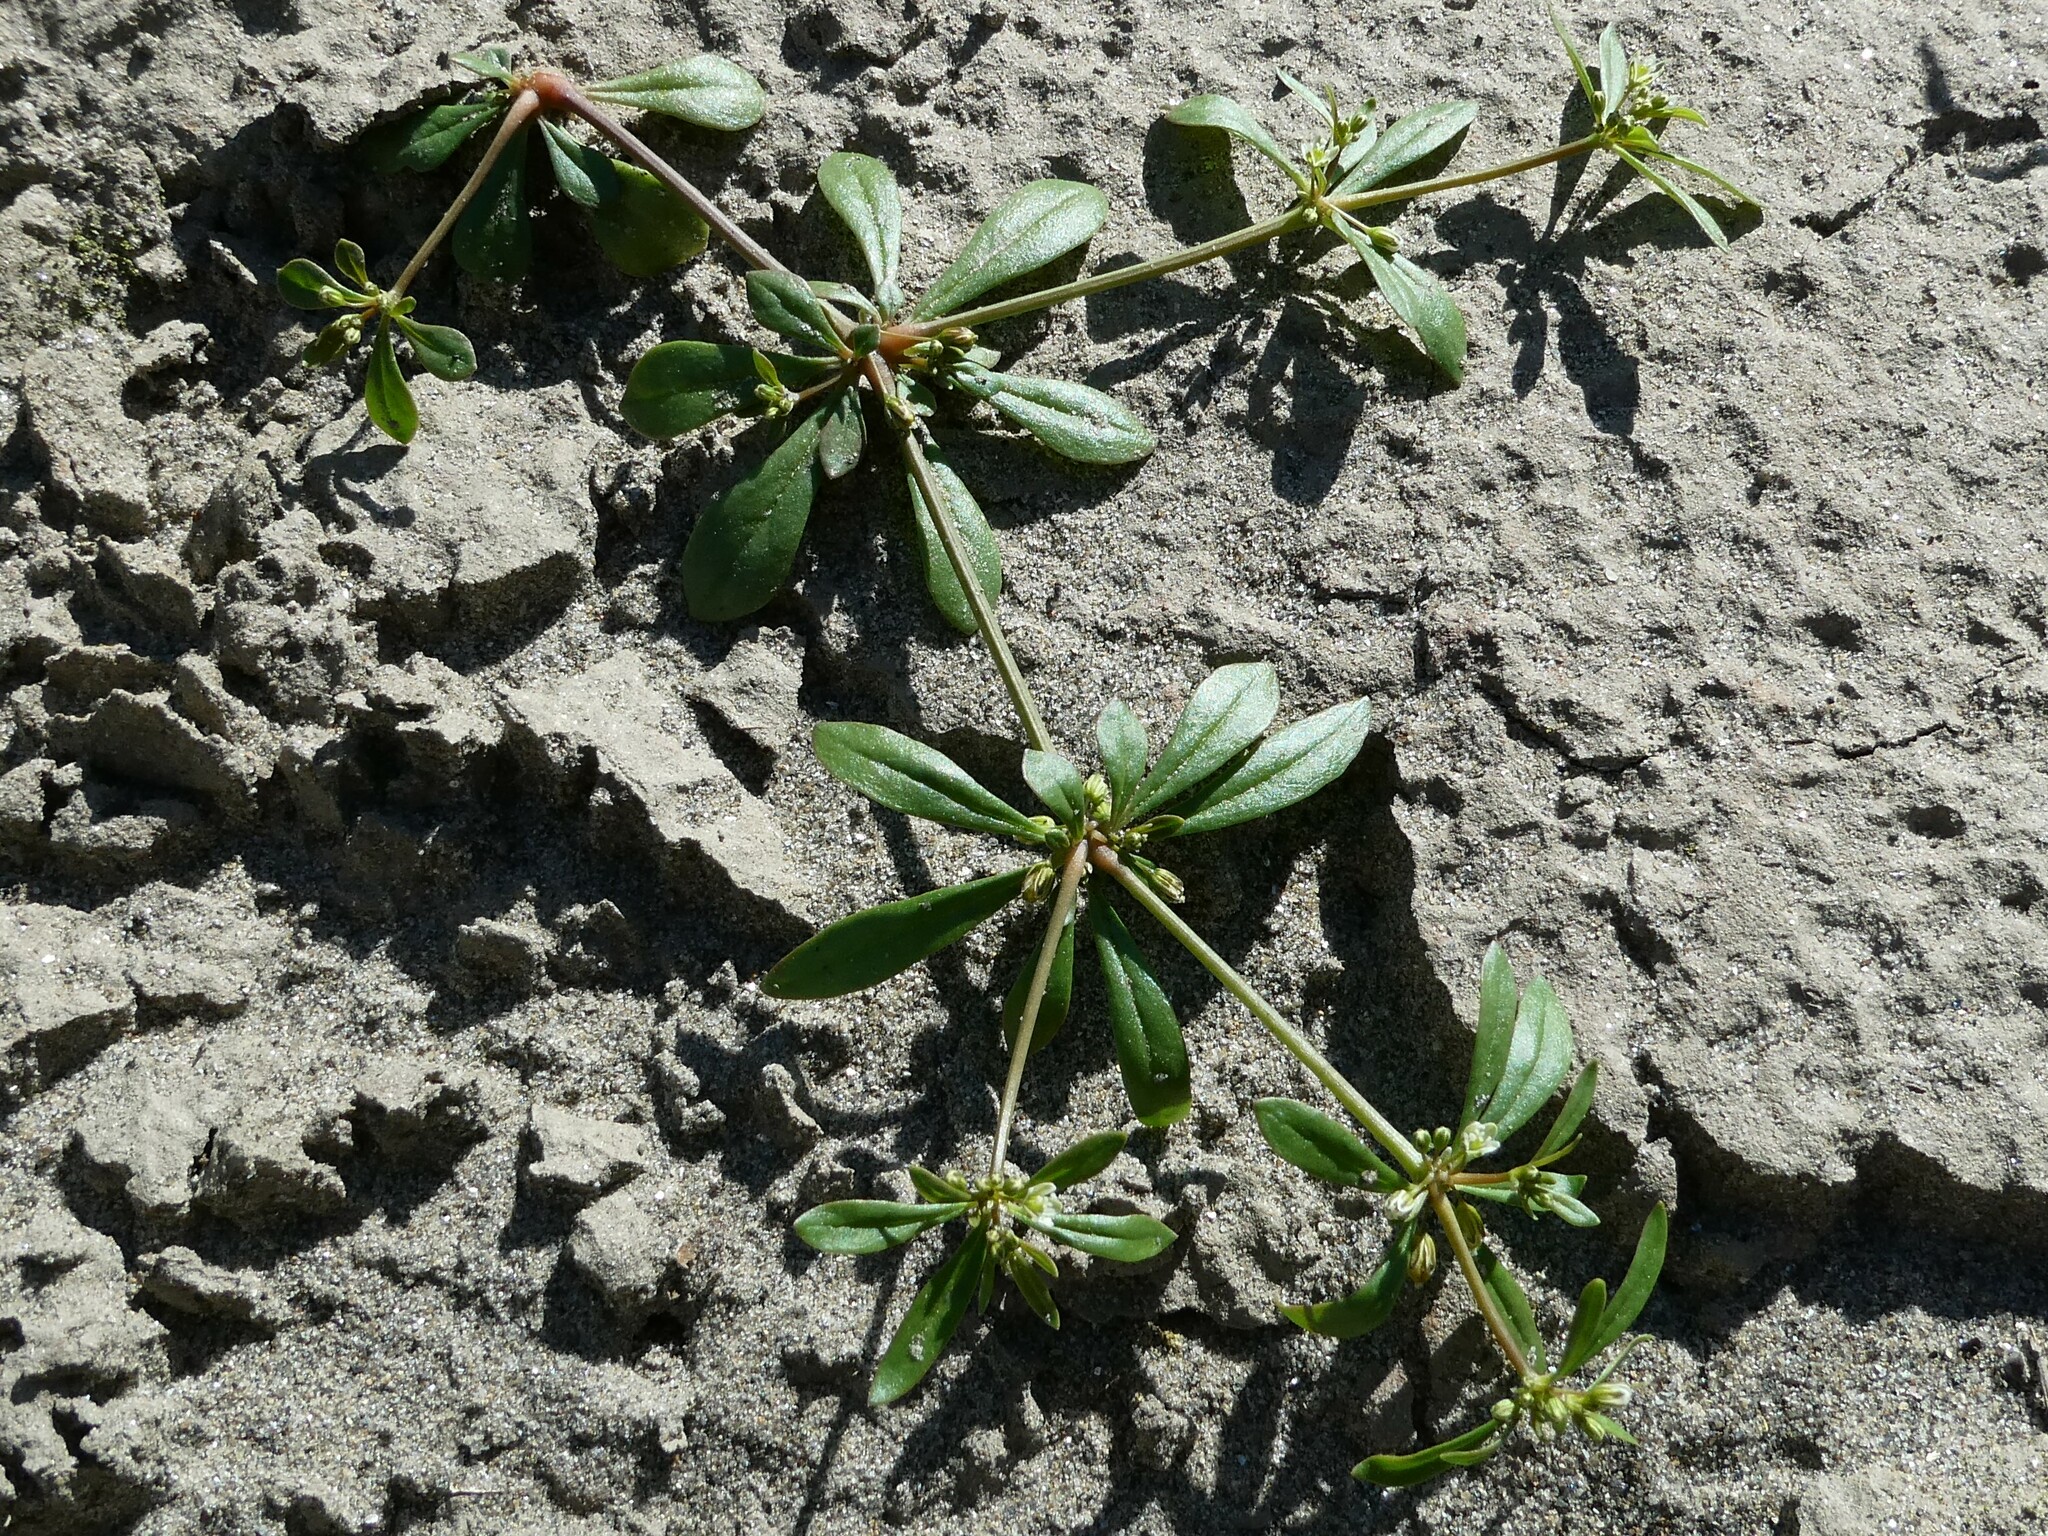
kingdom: Plantae
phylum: Tracheophyta
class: Magnoliopsida
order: Caryophyllales
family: Molluginaceae
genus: Mollugo
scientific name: Mollugo verticillata
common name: Green carpetweed
